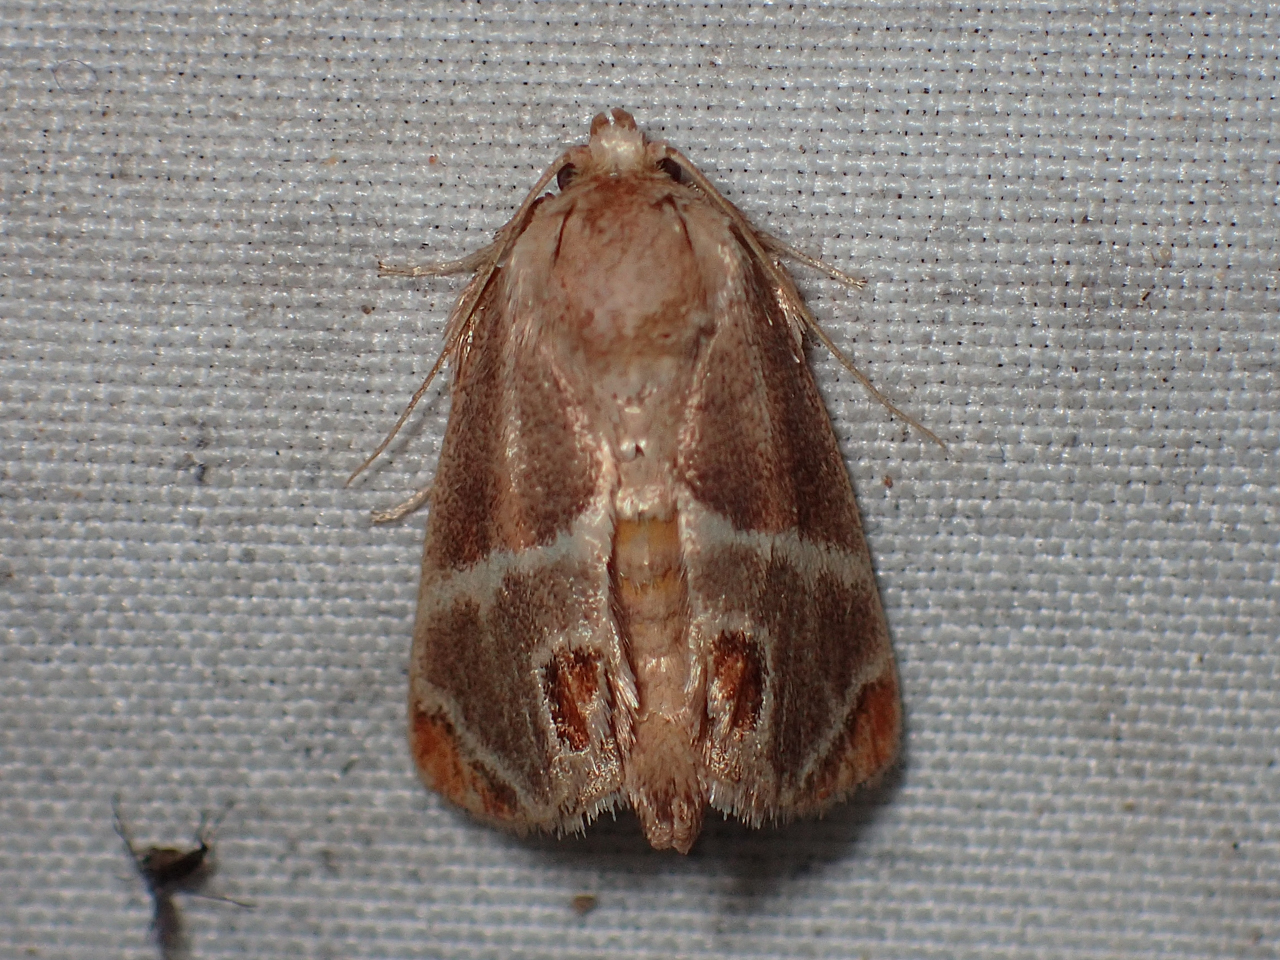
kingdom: Animalia
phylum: Arthropoda
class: Insecta
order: Lepidoptera
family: Limacodidae
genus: Apoda
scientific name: Apoda biguttata
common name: Shagreened slug moth
